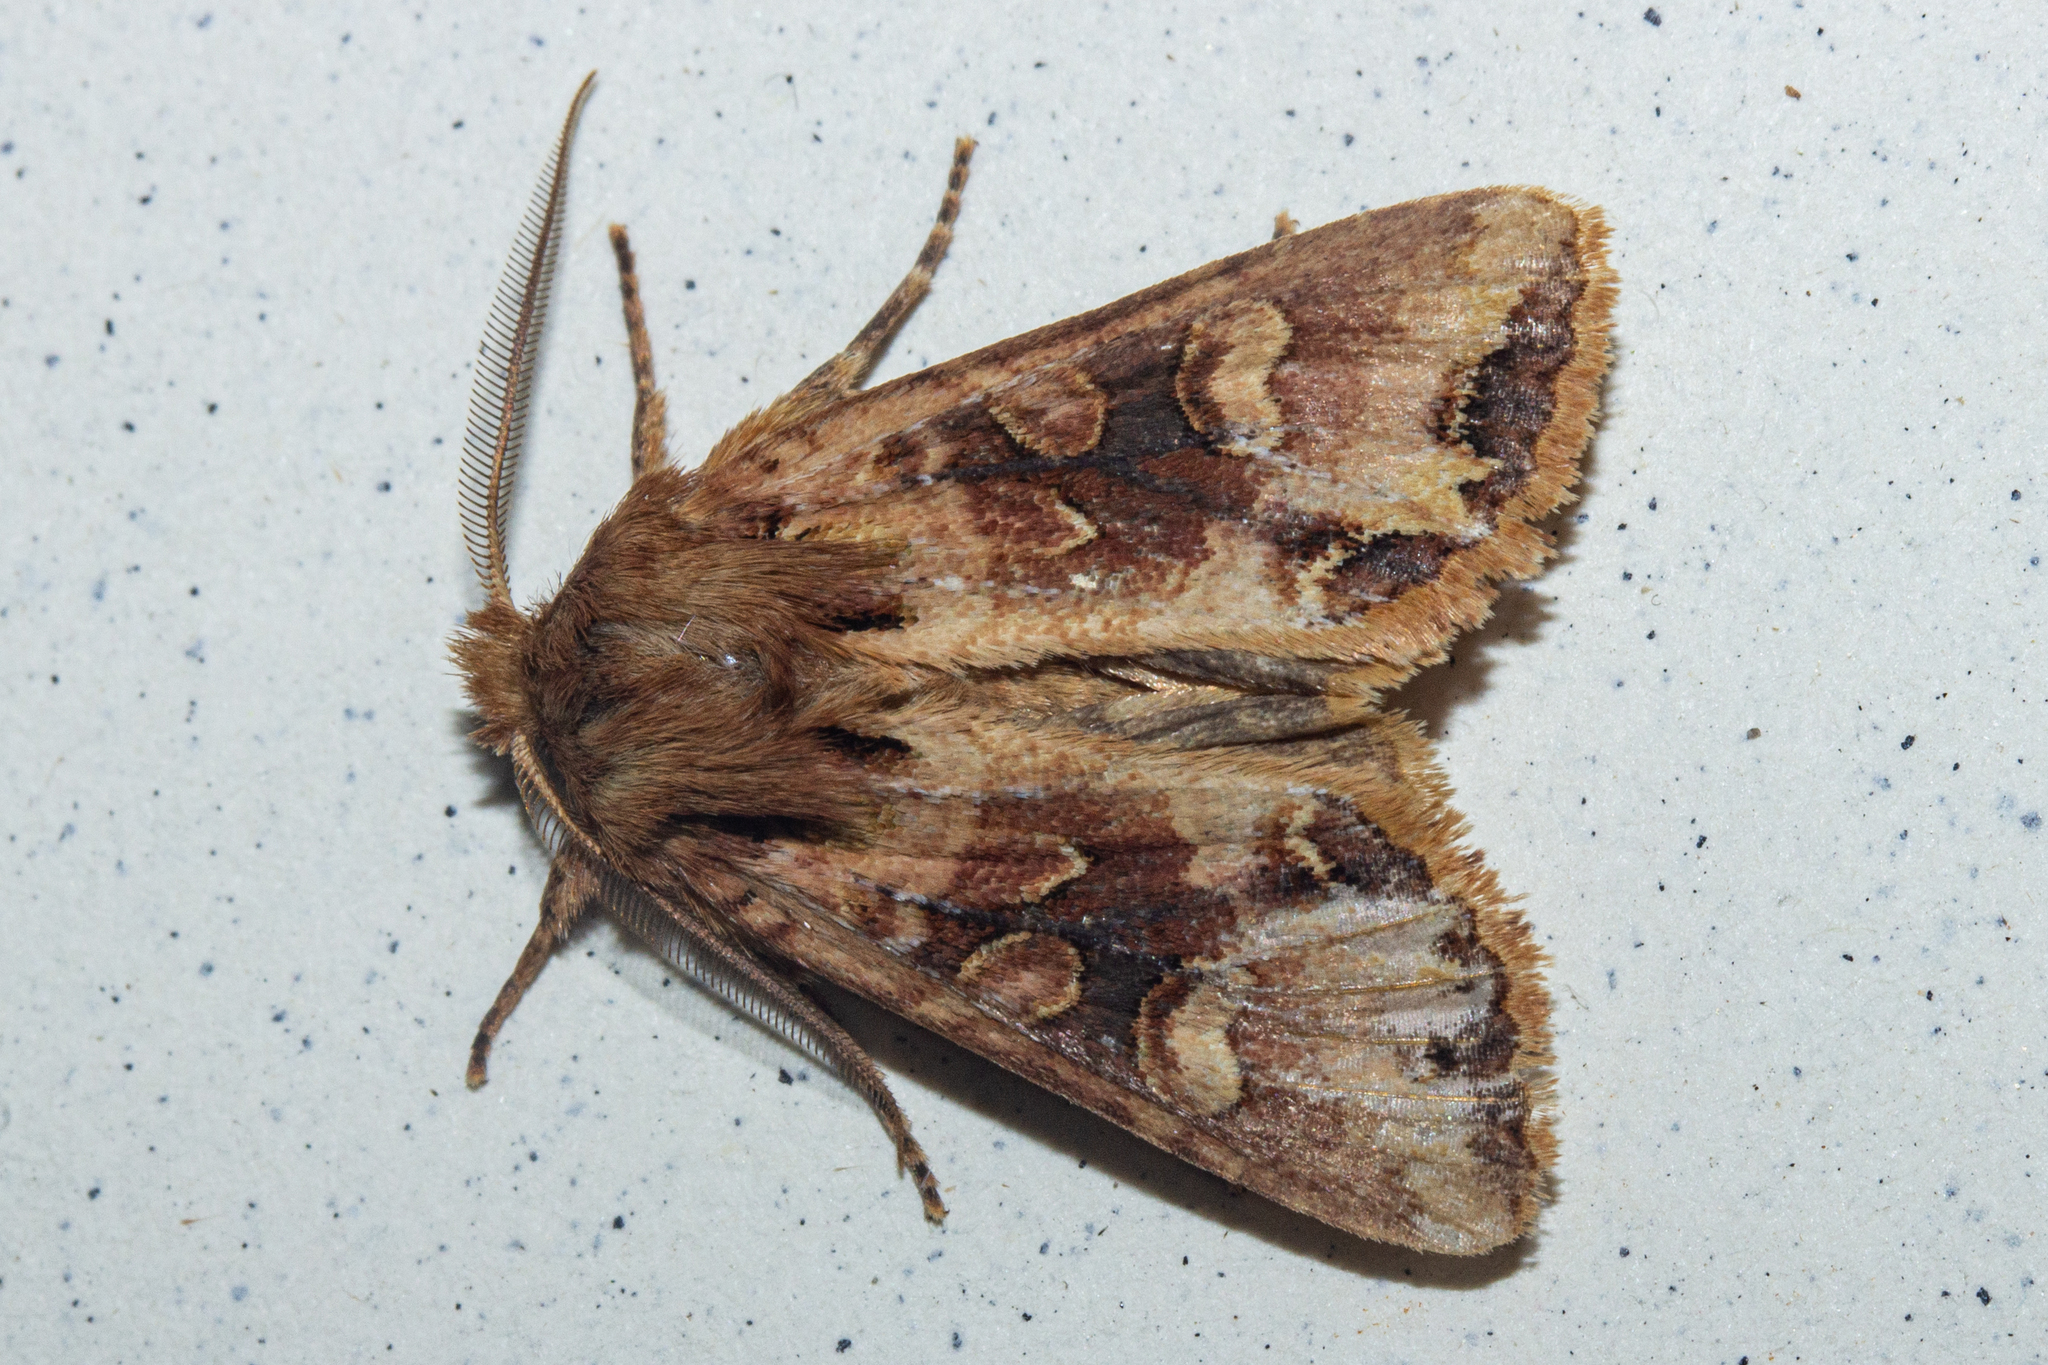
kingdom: Animalia
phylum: Arthropoda
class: Insecta
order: Lepidoptera
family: Noctuidae
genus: Ichneutica
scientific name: Ichneutica
